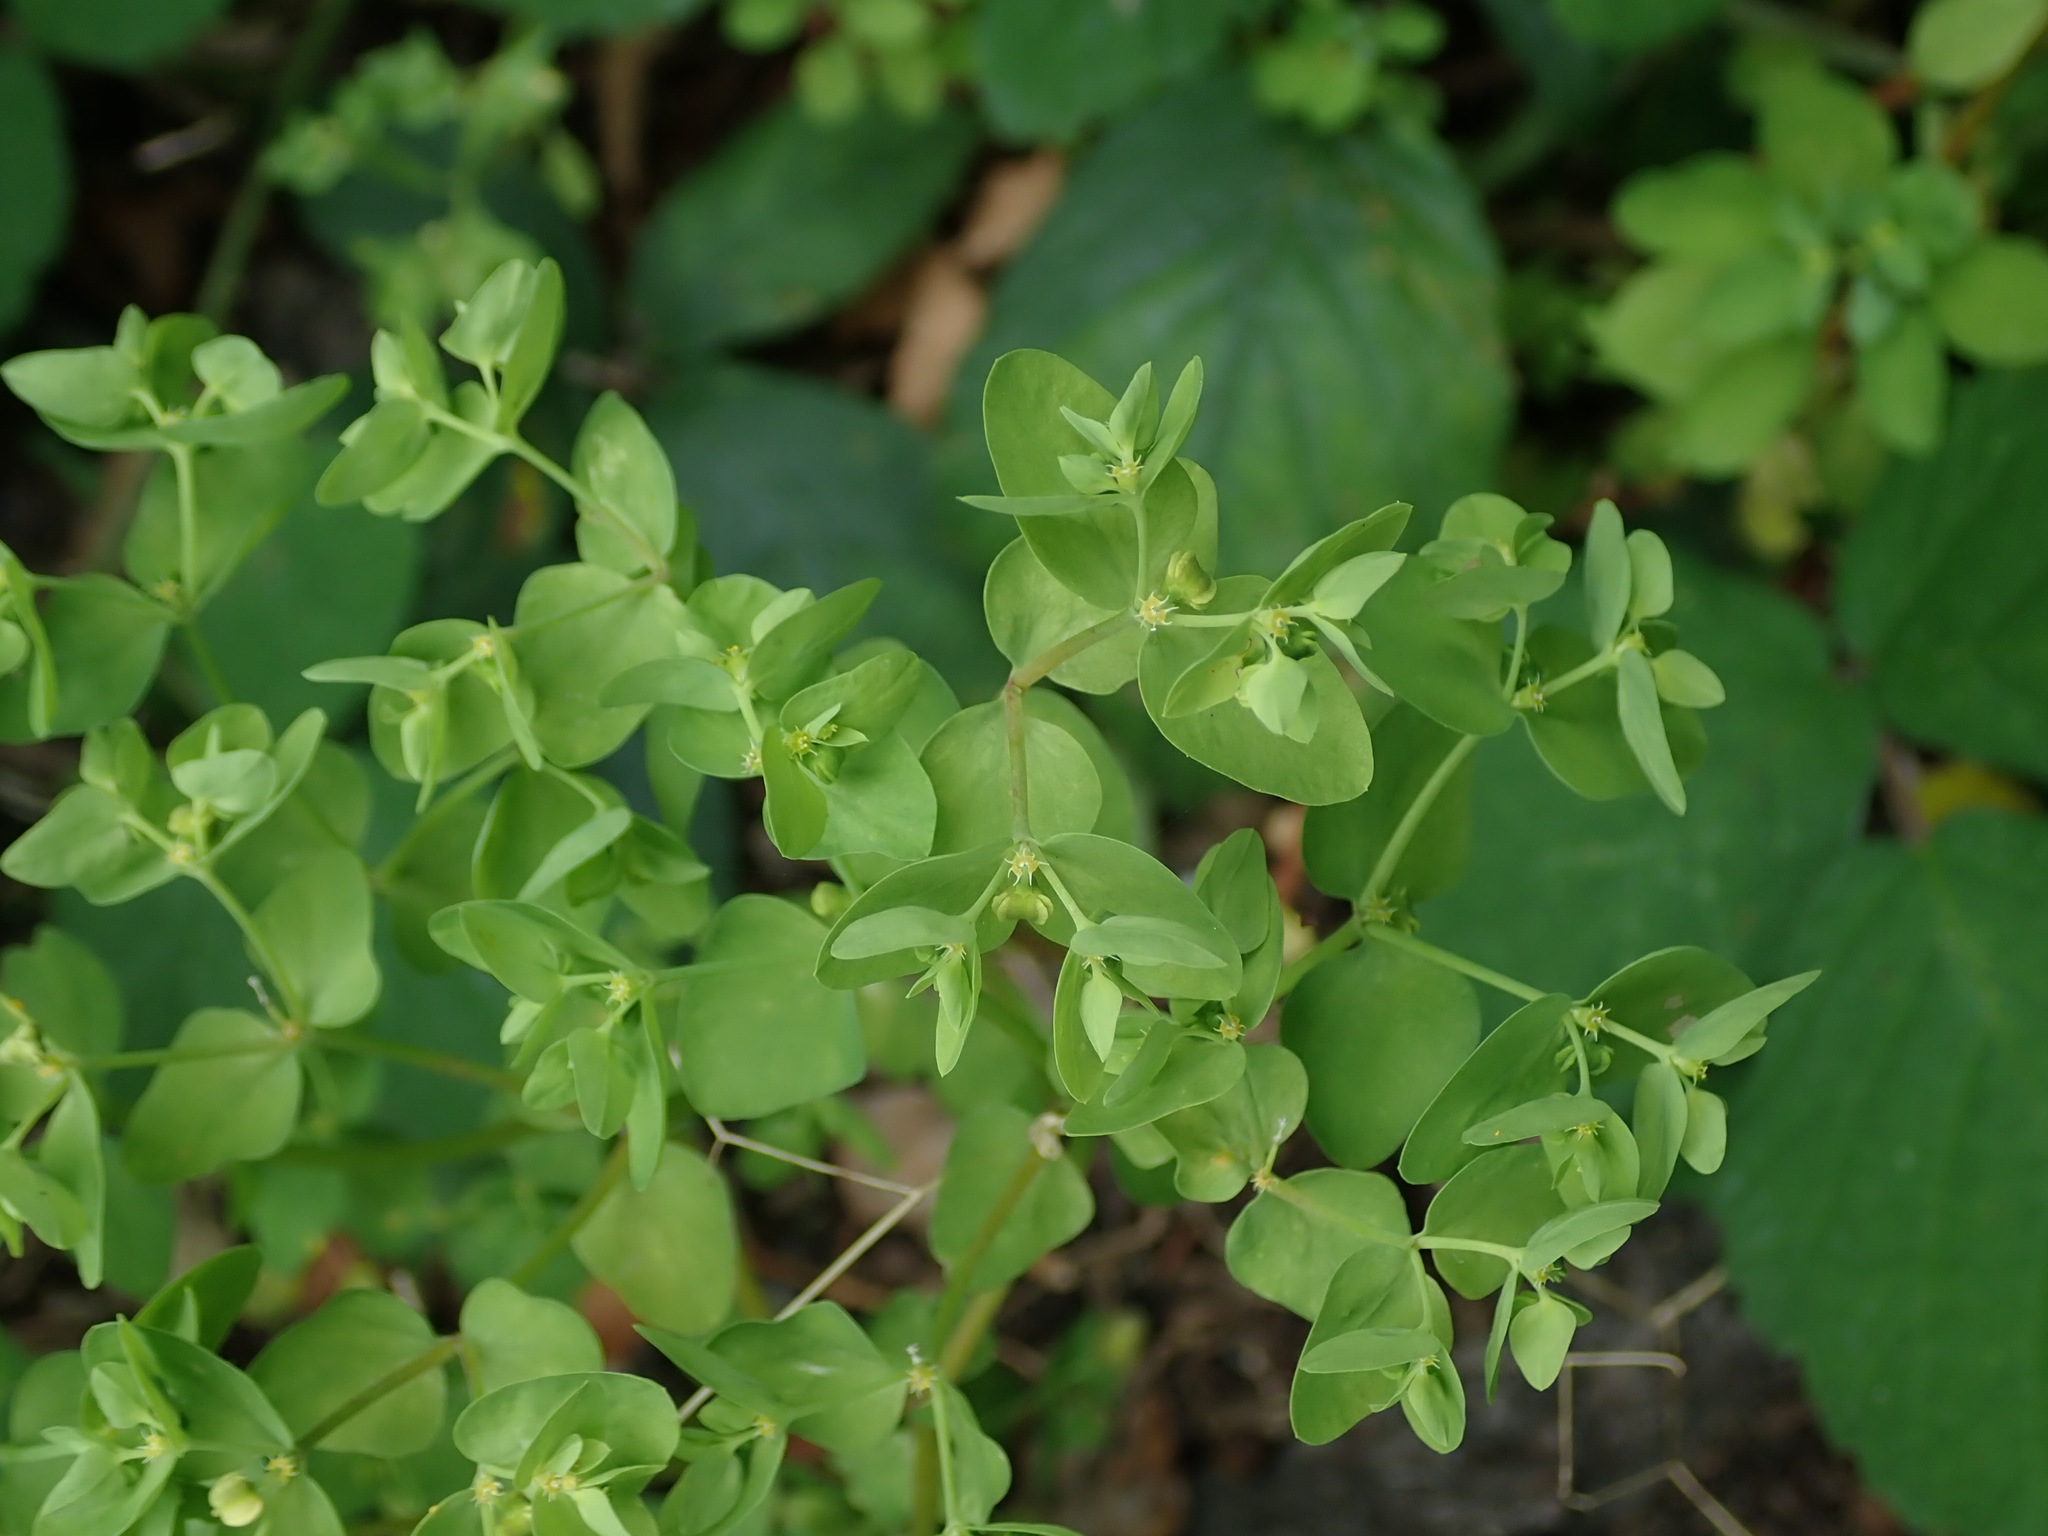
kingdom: Plantae
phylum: Tracheophyta
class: Magnoliopsida
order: Malpighiales
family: Euphorbiaceae
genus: Euphorbia
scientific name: Euphorbia peplus
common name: Petty spurge
